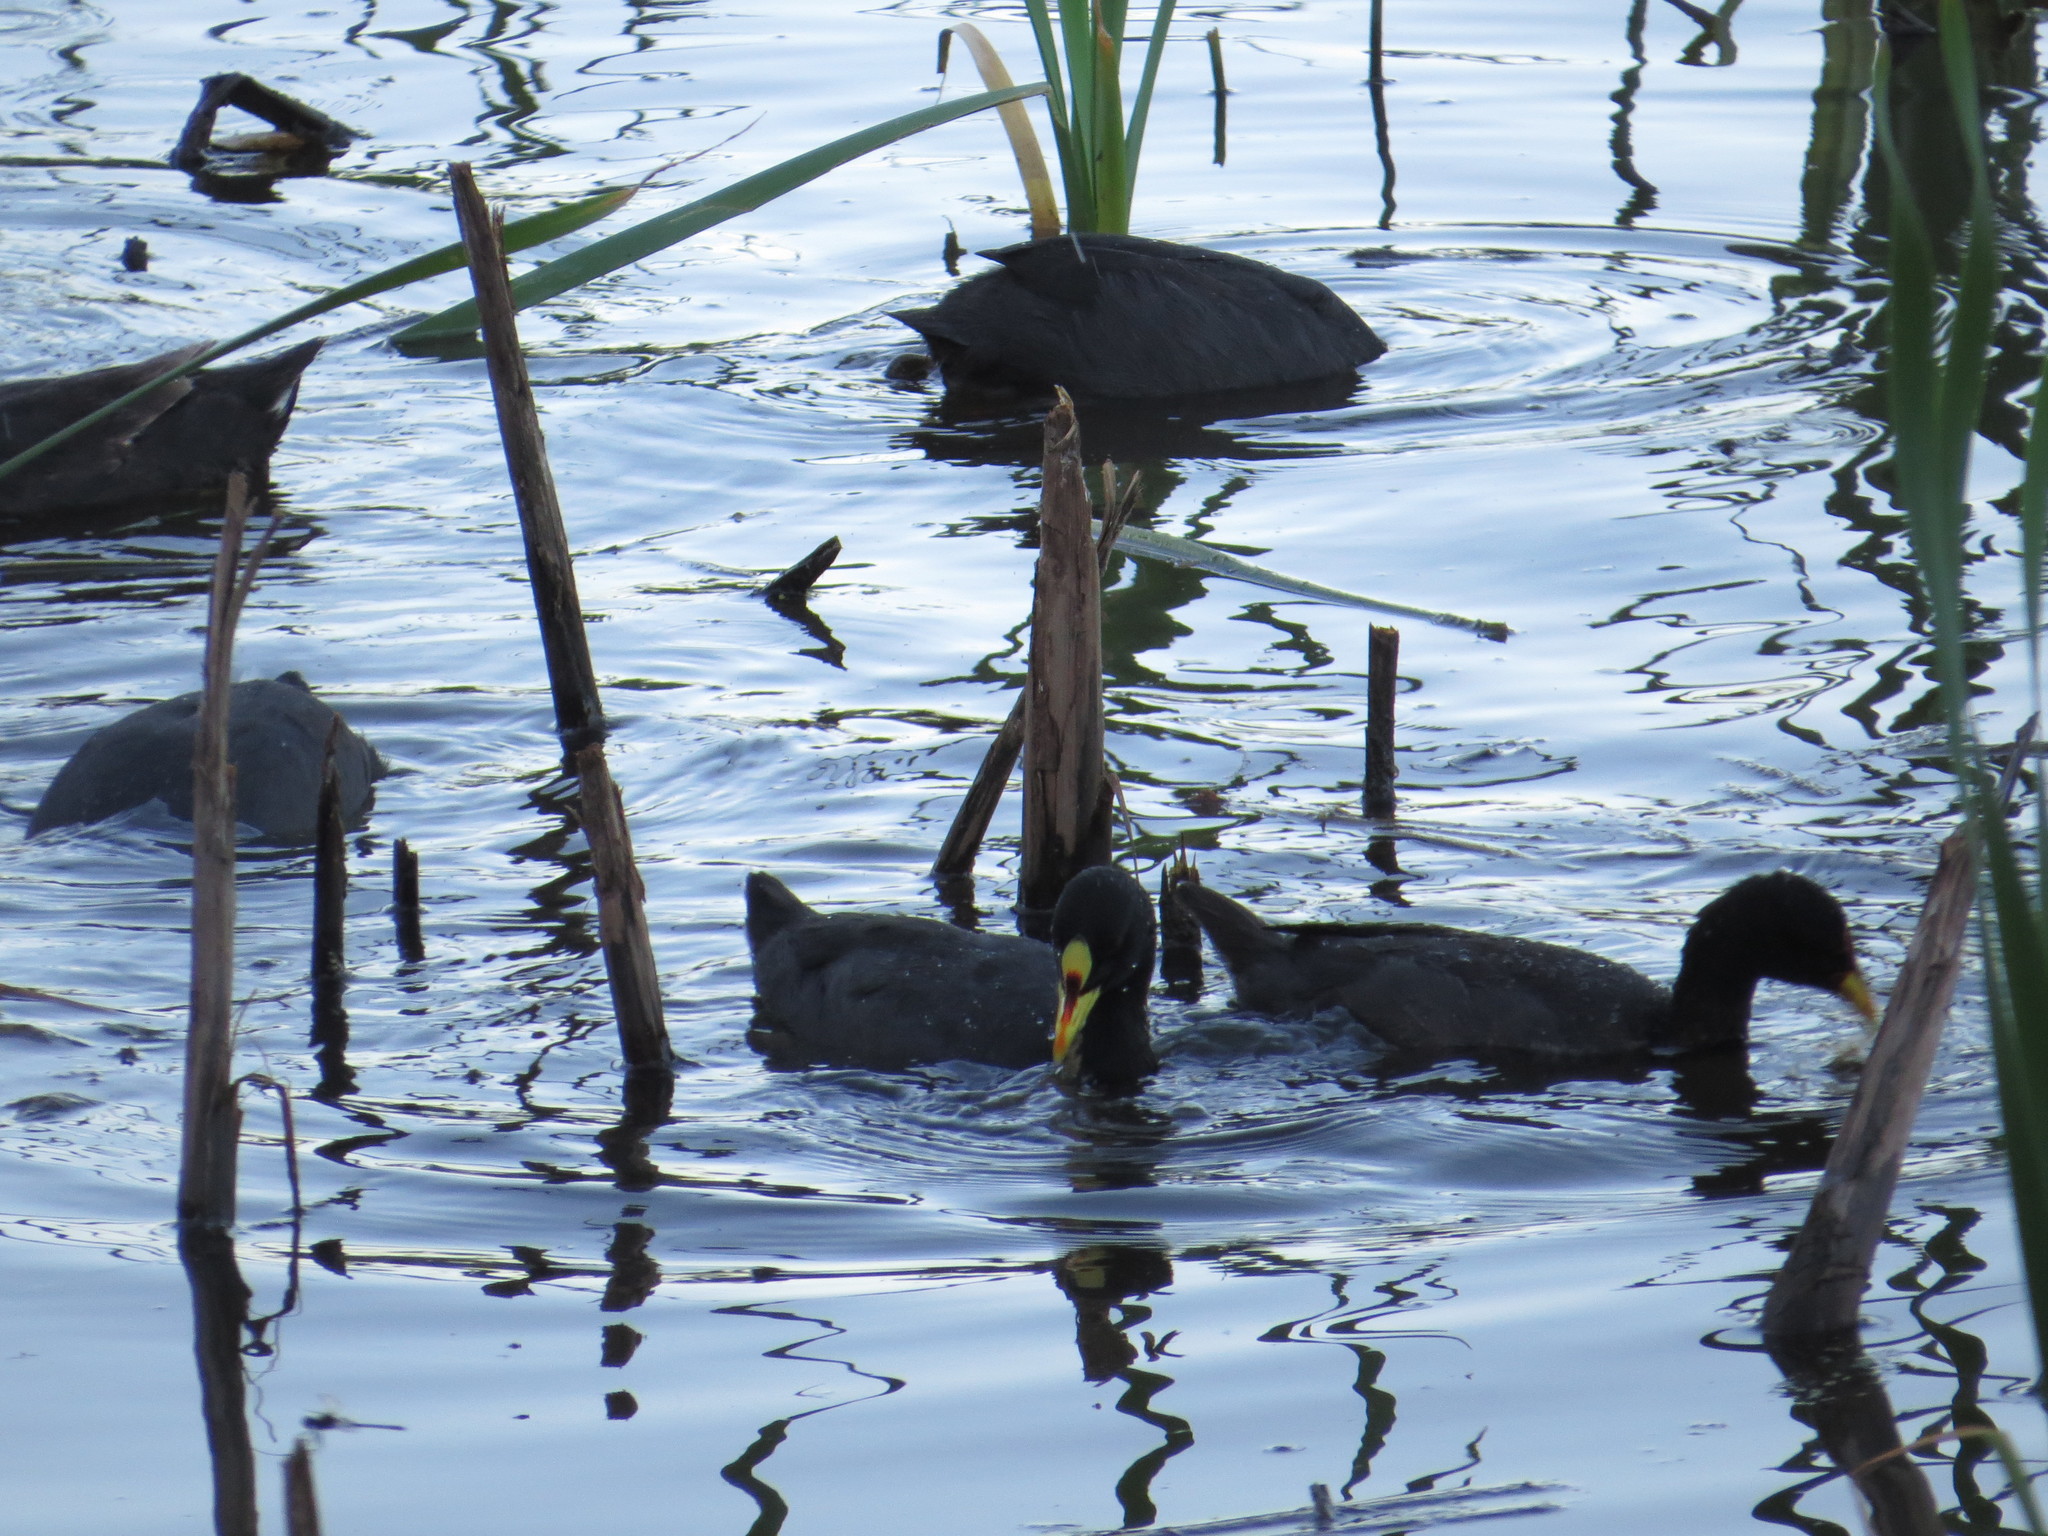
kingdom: Animalia
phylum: Chordata
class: Aves
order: Gruiformes
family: Rallidae
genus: Fulica
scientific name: Fulica armillata
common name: Red-gartered coot
